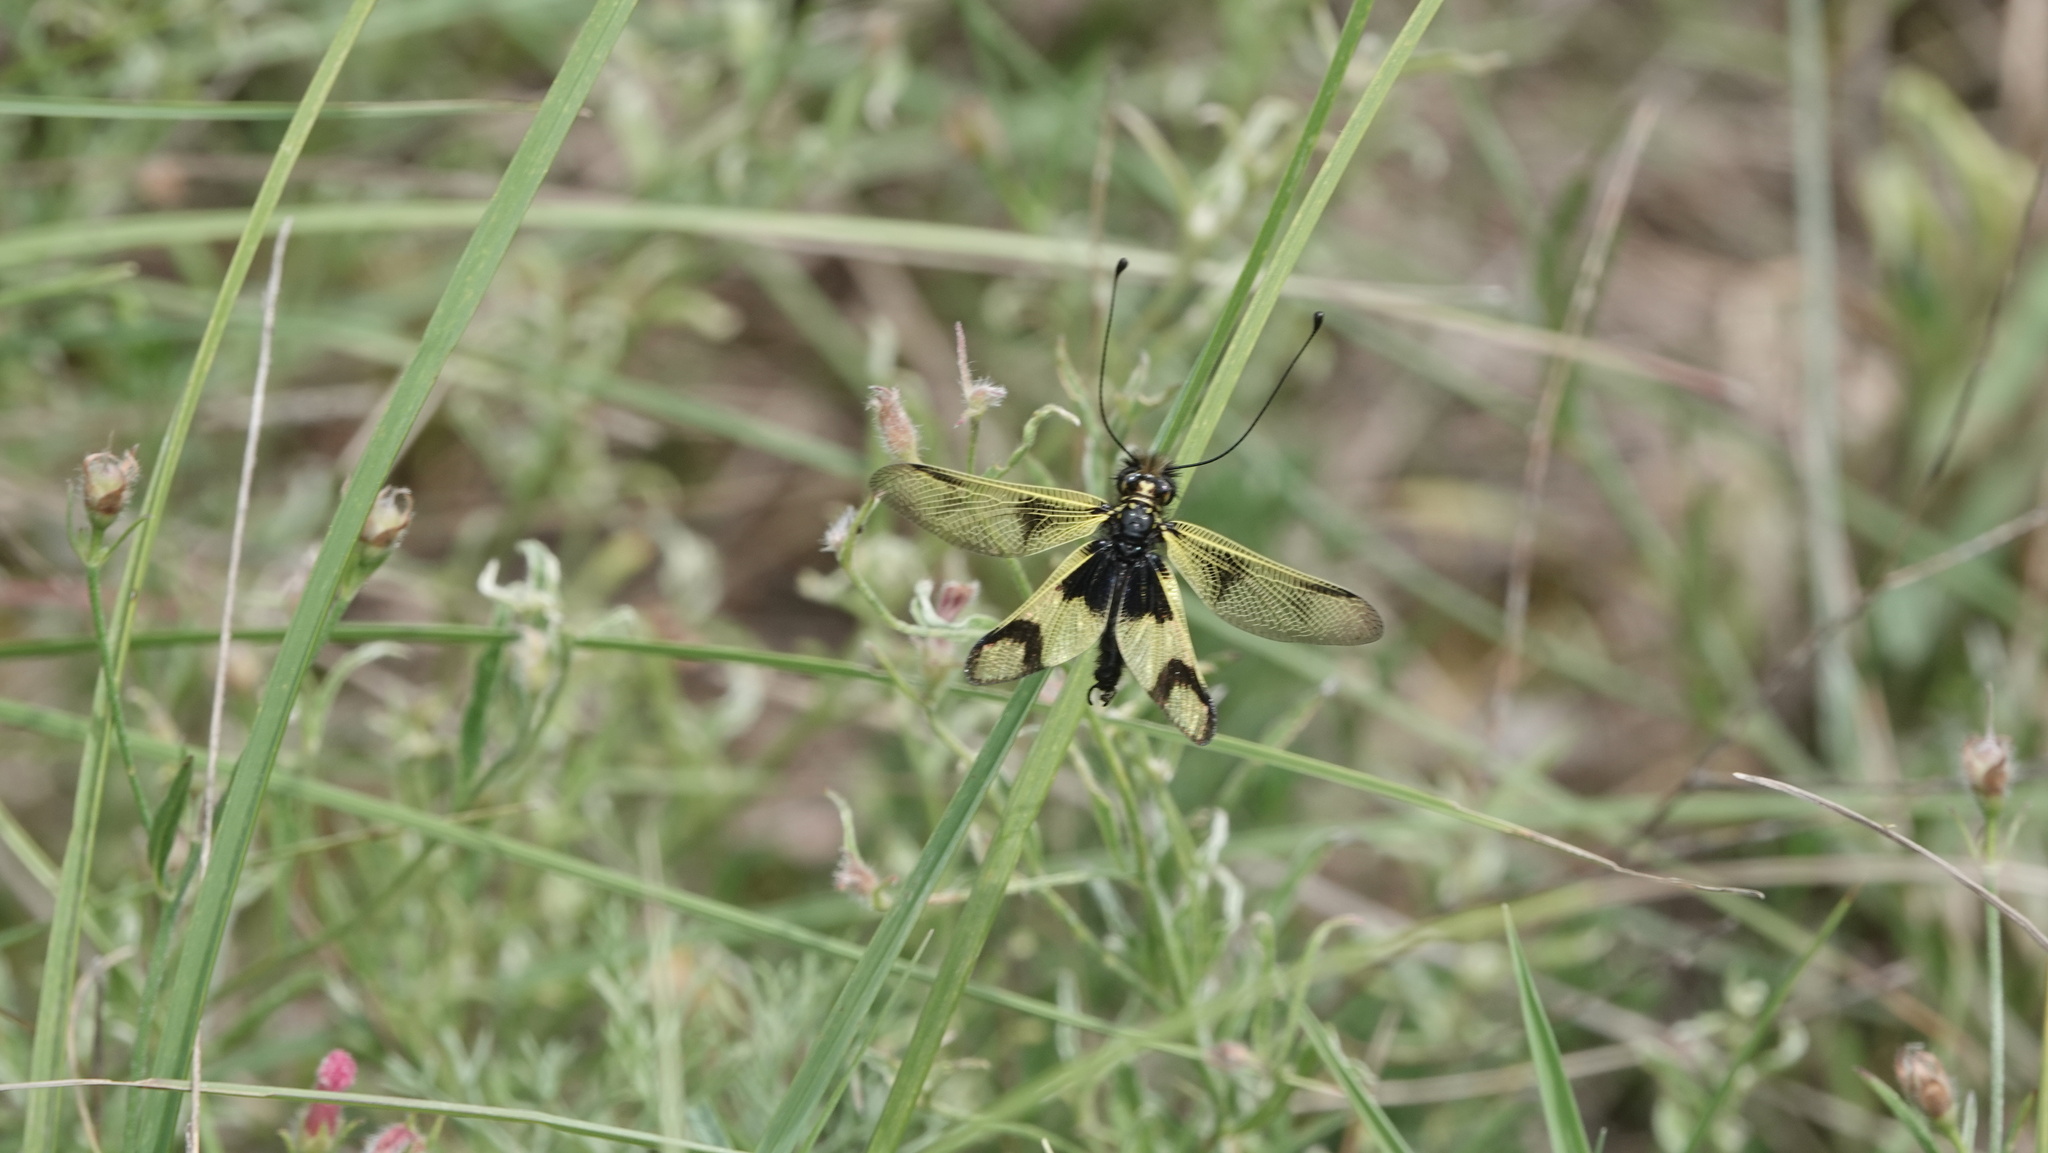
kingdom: Animalia
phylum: Arthropoda
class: Insecta
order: Neuroptera
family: Ascalaphidae
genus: Libelloides
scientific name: Libelloides longicornis
